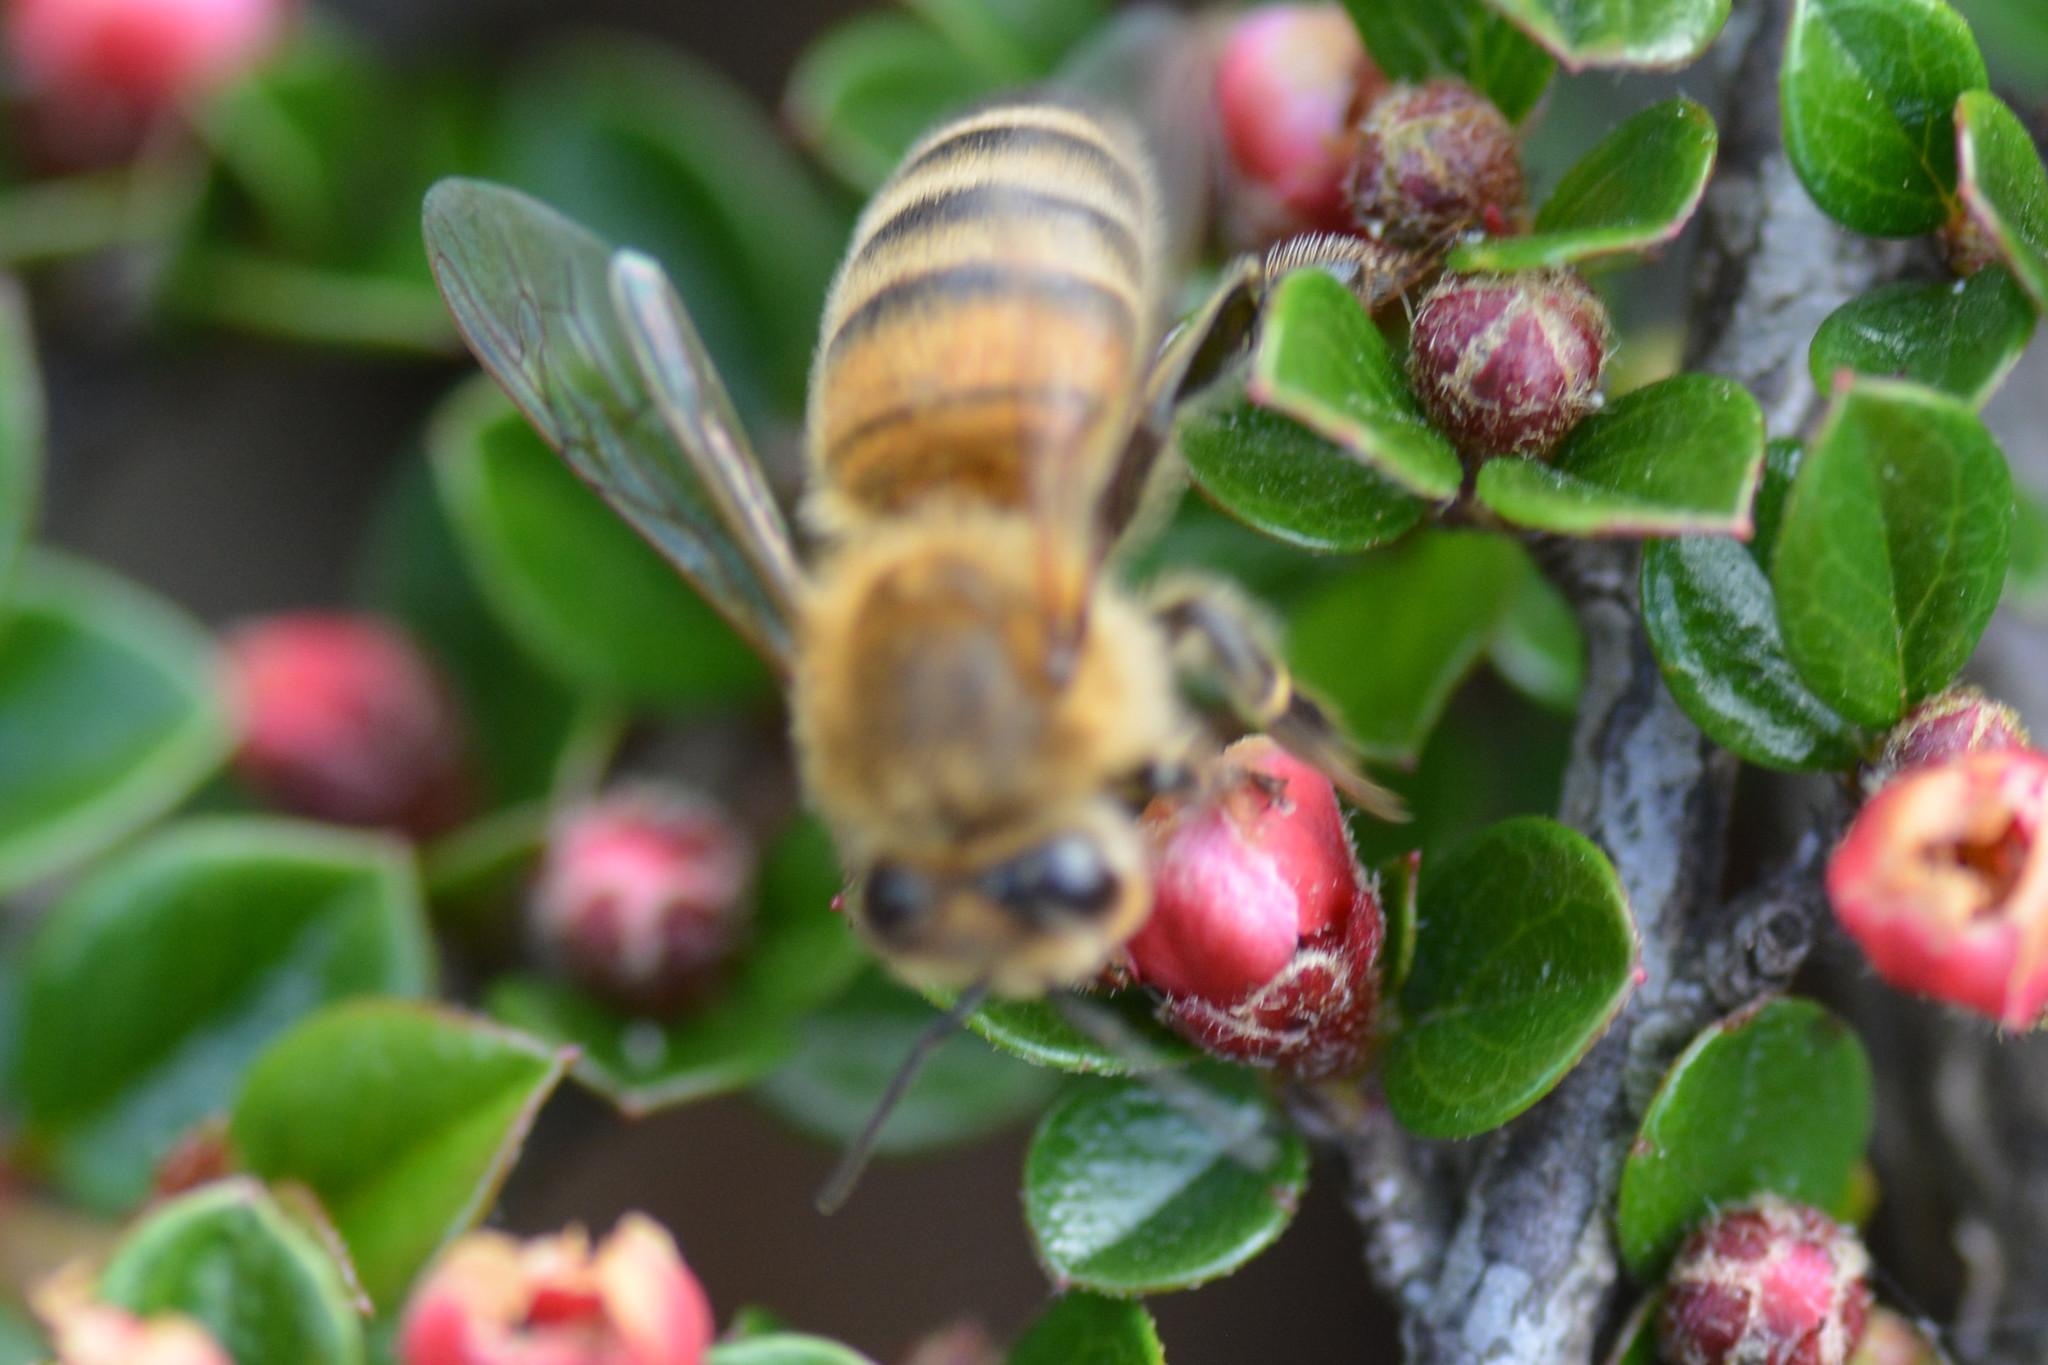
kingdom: Animalia
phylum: Arthropoda
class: Insecta
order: Hymenoptera
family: Apidae
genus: Apis
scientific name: Apis mellifera
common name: Honey bee
